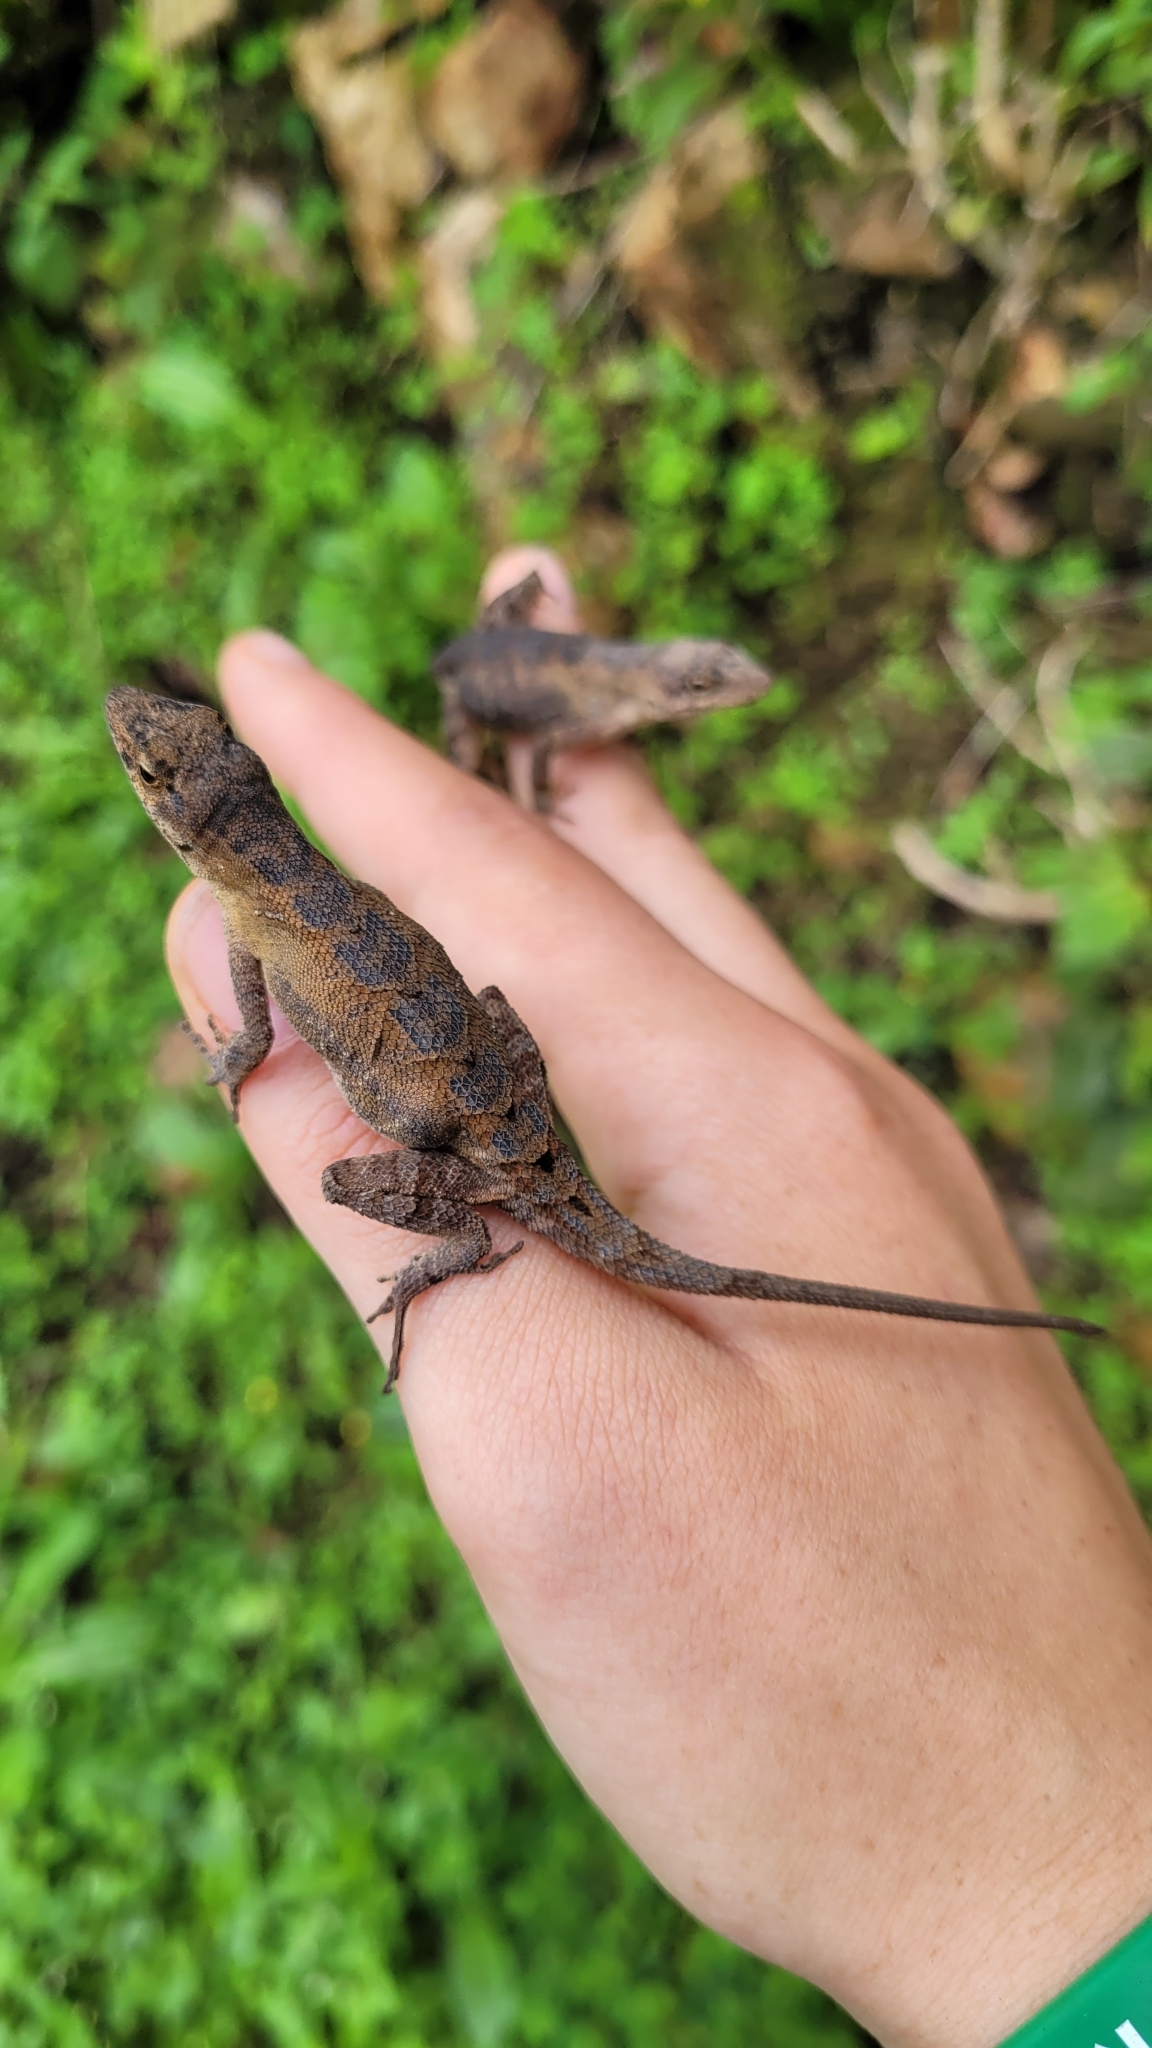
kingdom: Animalia
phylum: Chordata
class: Squamata
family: Dactyloidae
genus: Anolis
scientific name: Anolis mccraniei
